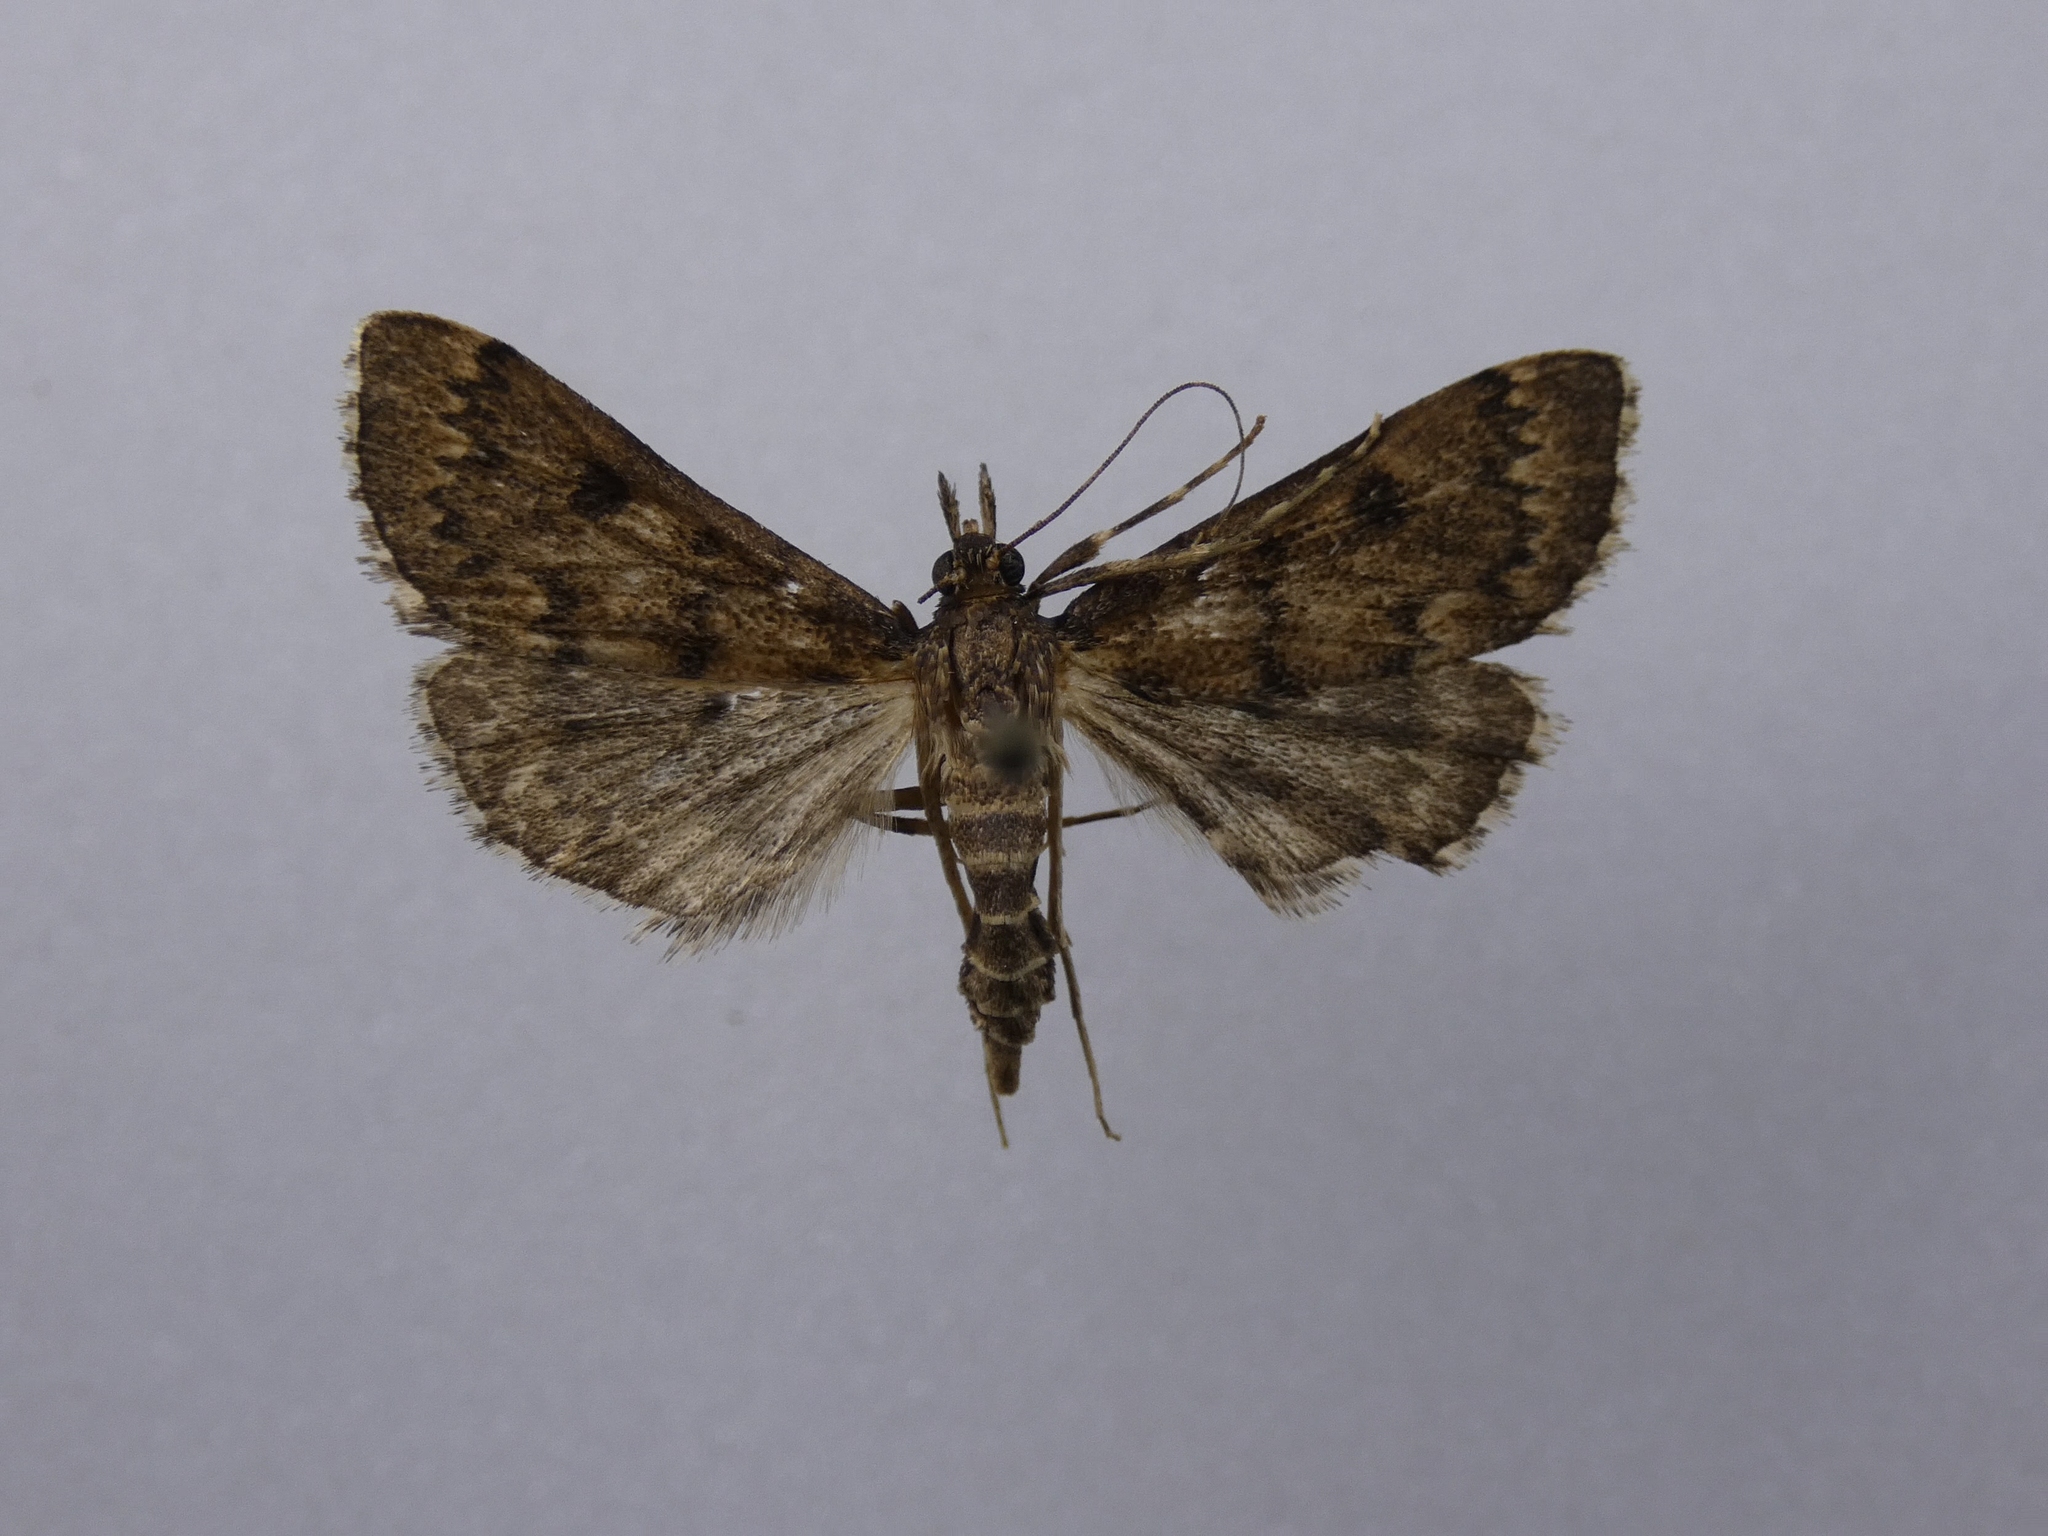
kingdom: Animalia
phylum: Arthropoda
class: Insecta
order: Lepidoptera
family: Crambidae
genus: Loxostege
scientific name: Loxostege Proternia philocapna
